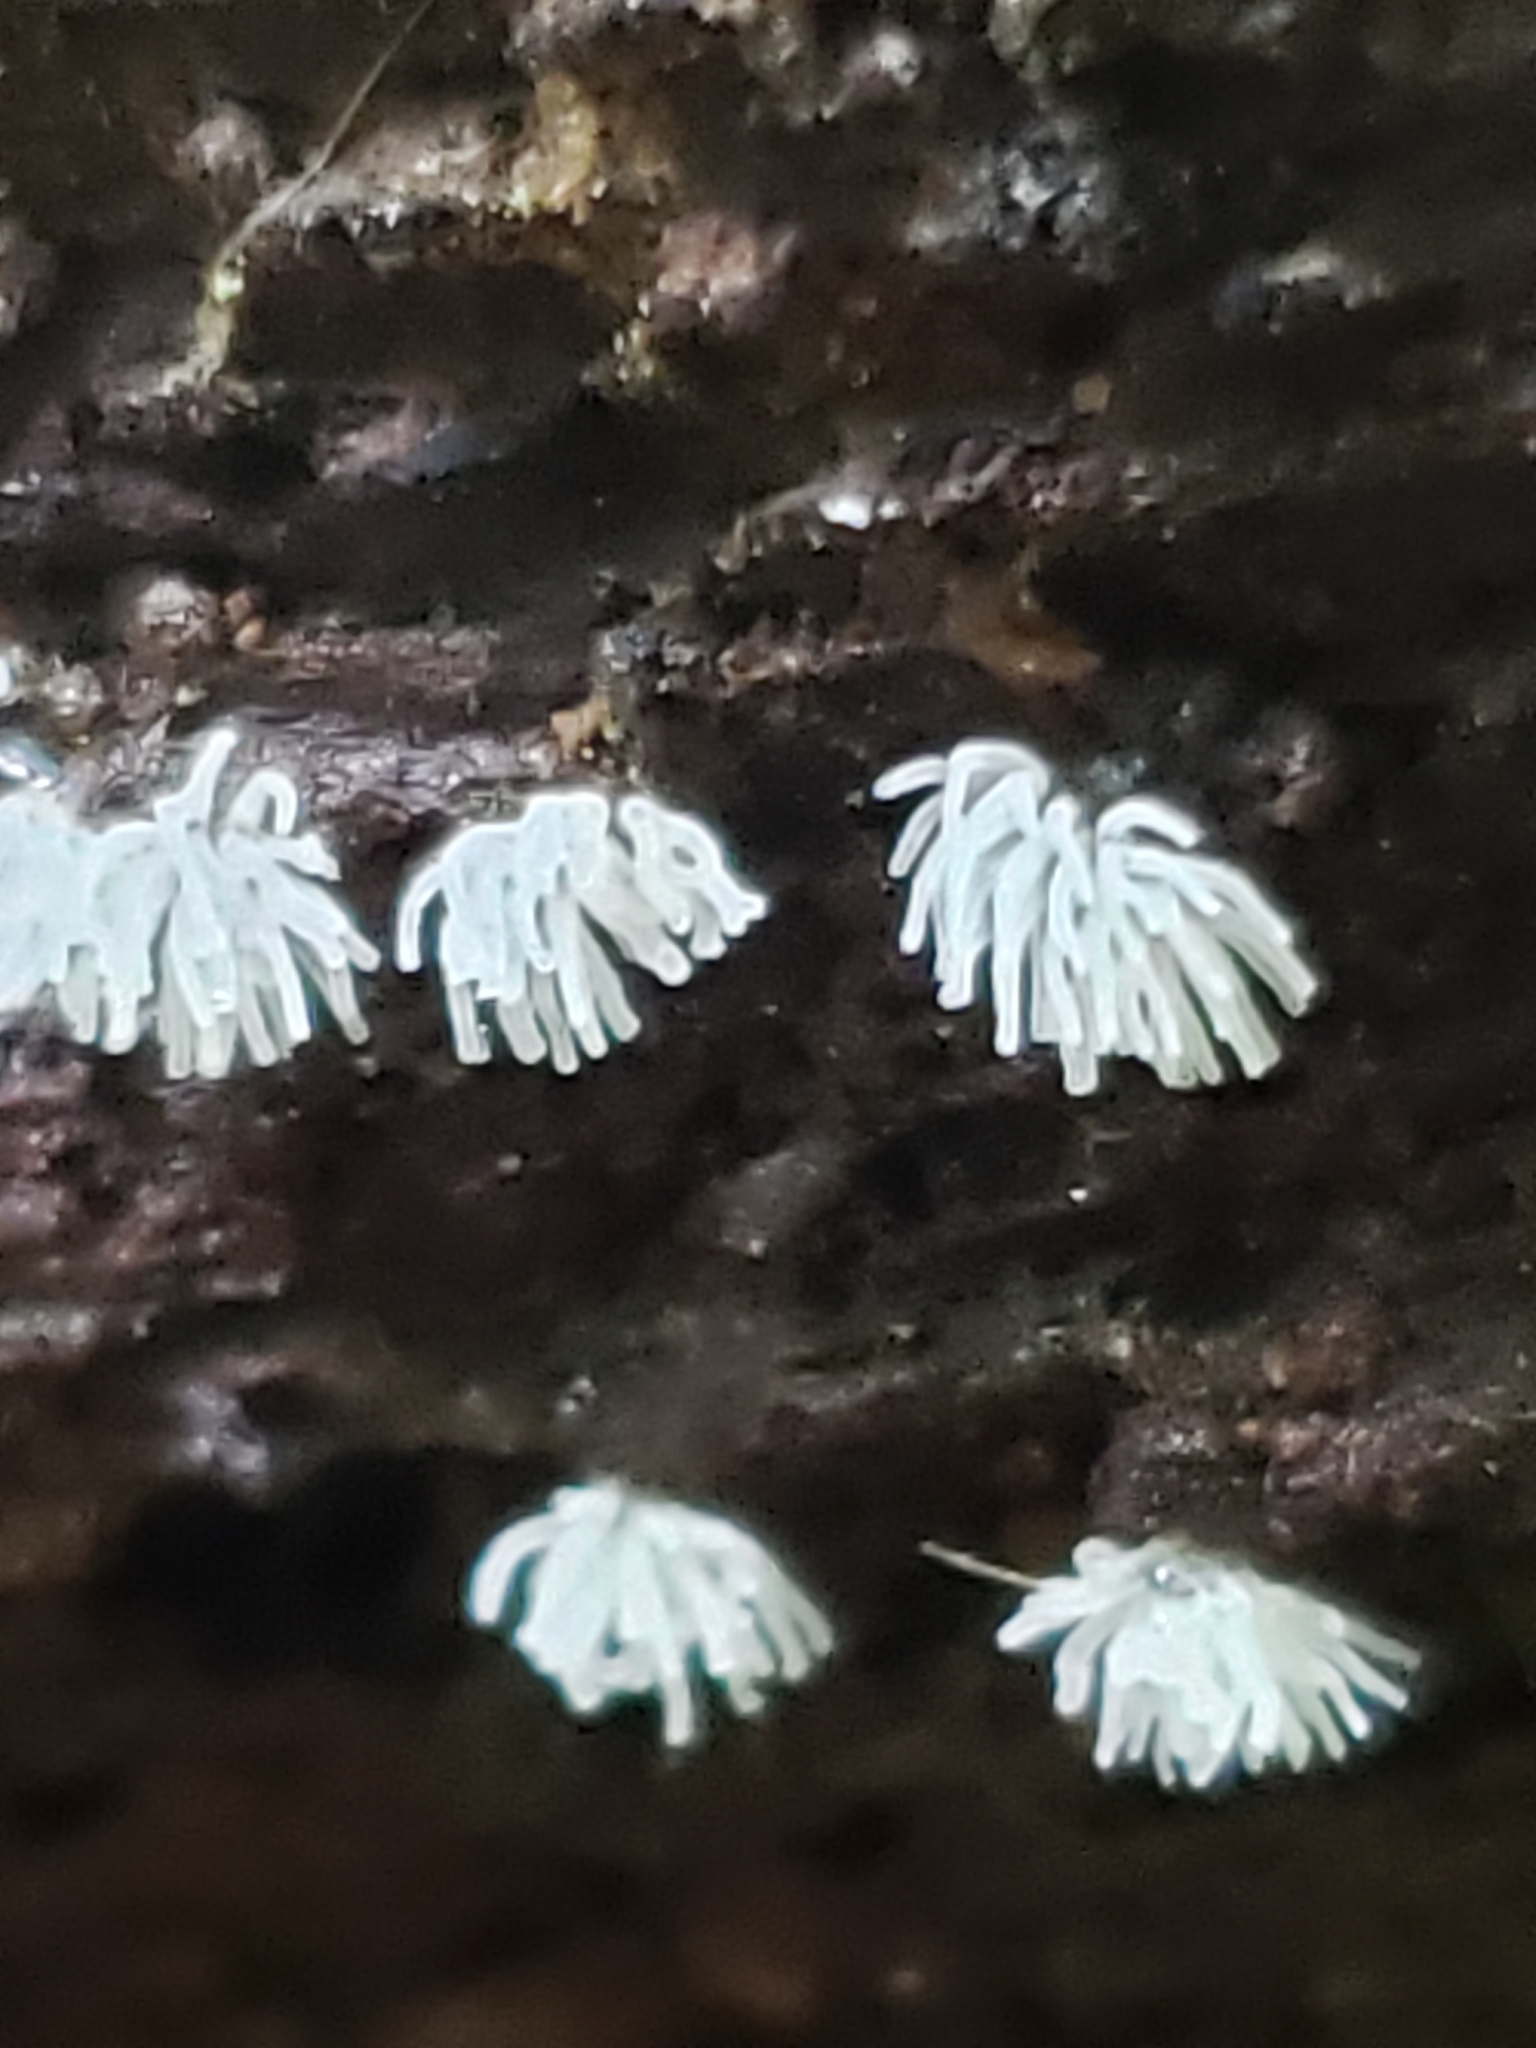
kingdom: Protozoa
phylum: Mycetozoa
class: Protosteliomycetes
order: Ceratiomyxales
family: Ceratiomyxaceae
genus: Ceratiomyxa
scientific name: Ceratiomyxa fruticulosa
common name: Honeycomb coral slime mold
